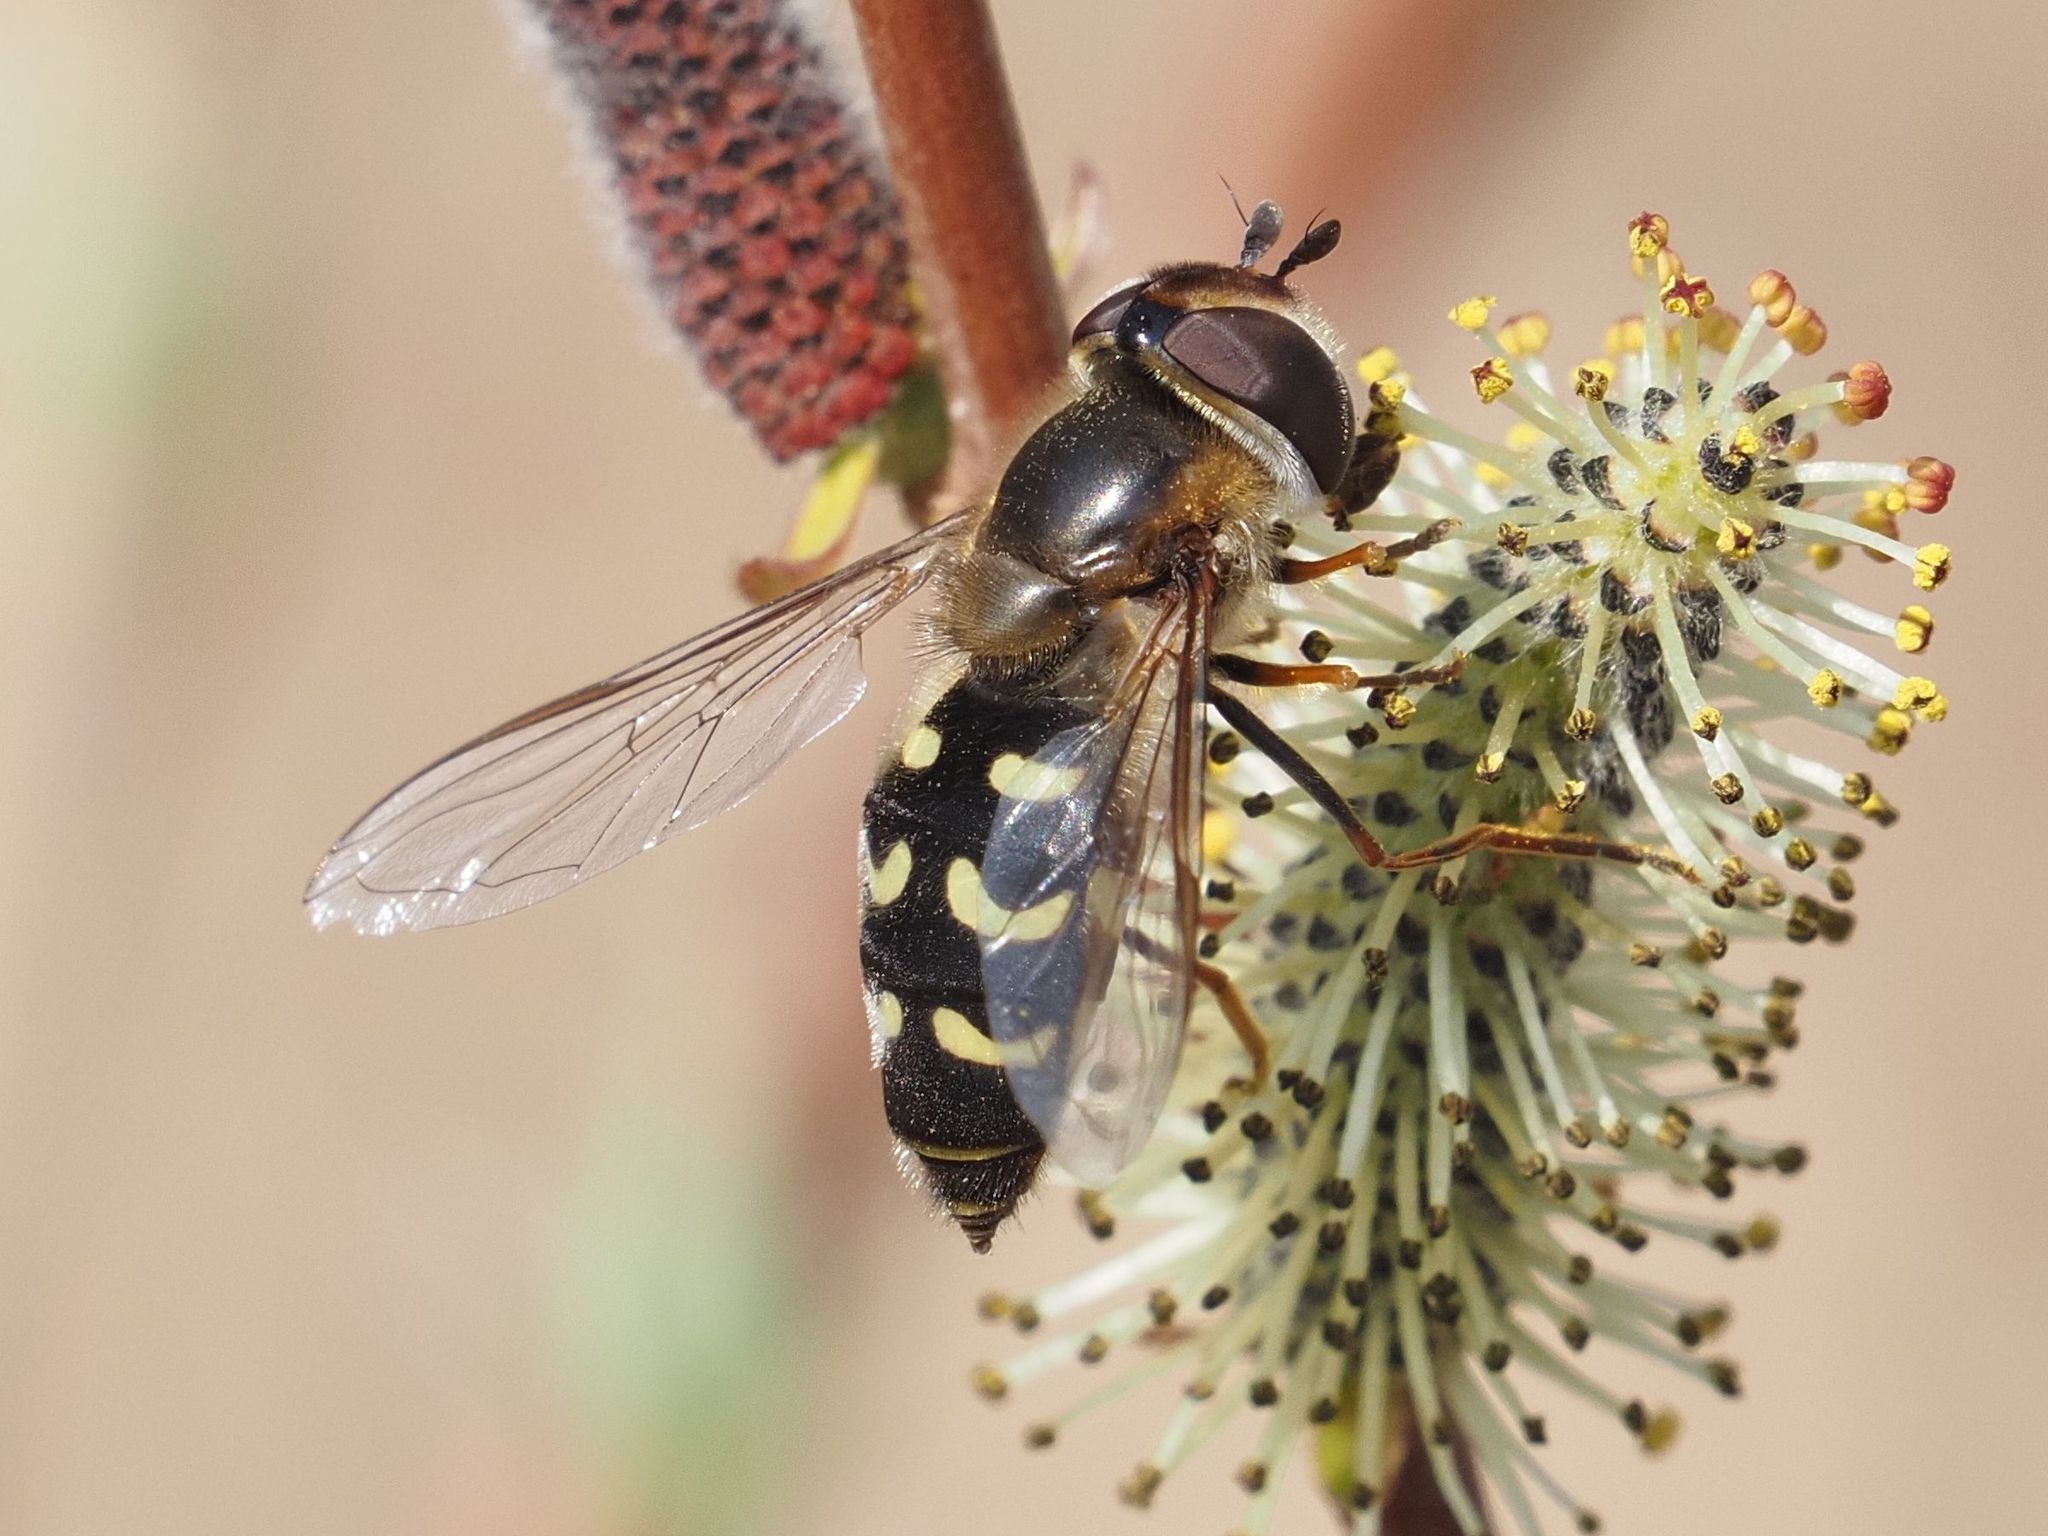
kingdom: Animalia
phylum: Arthropoda
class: Insecta
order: Diptera
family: Syrphidae
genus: Scaeva
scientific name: Scaeva selenitica
